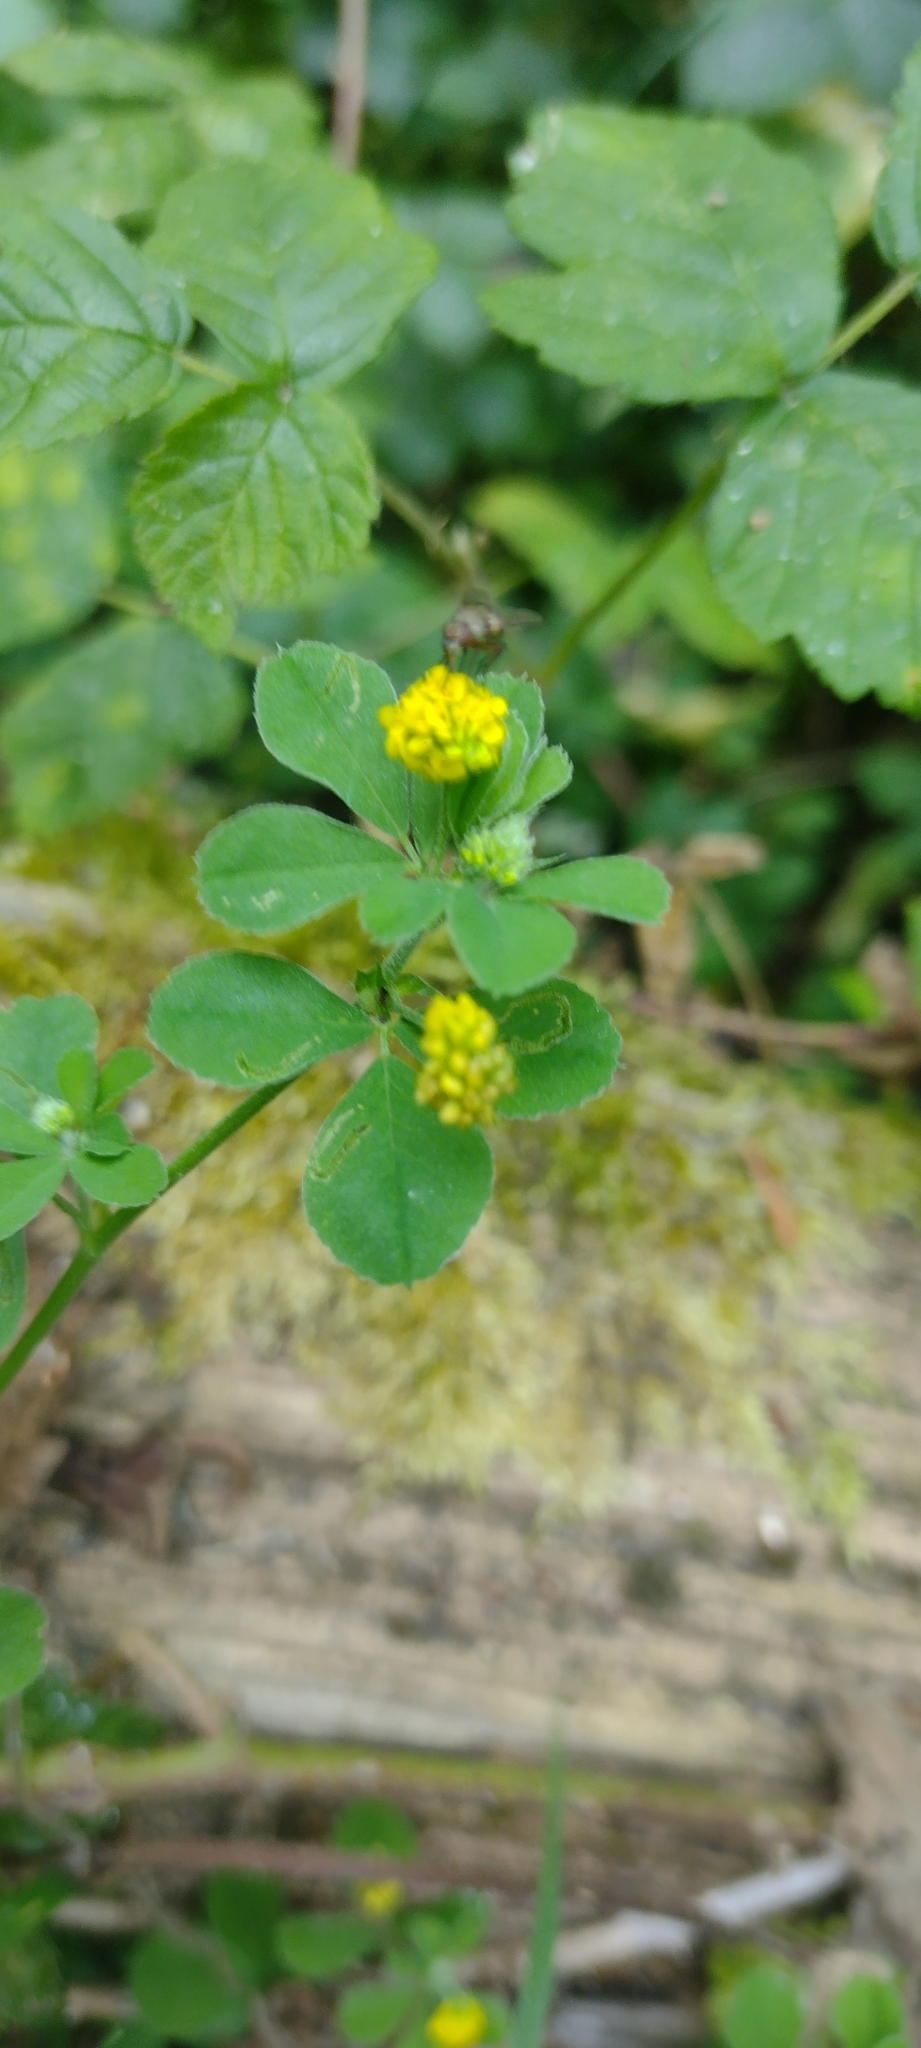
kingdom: Plantae
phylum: Tracheophyta
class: Magnoliopsida
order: Fabales
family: Fabaceae
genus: Medicago
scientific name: Medicago lupulina
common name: Black medick
